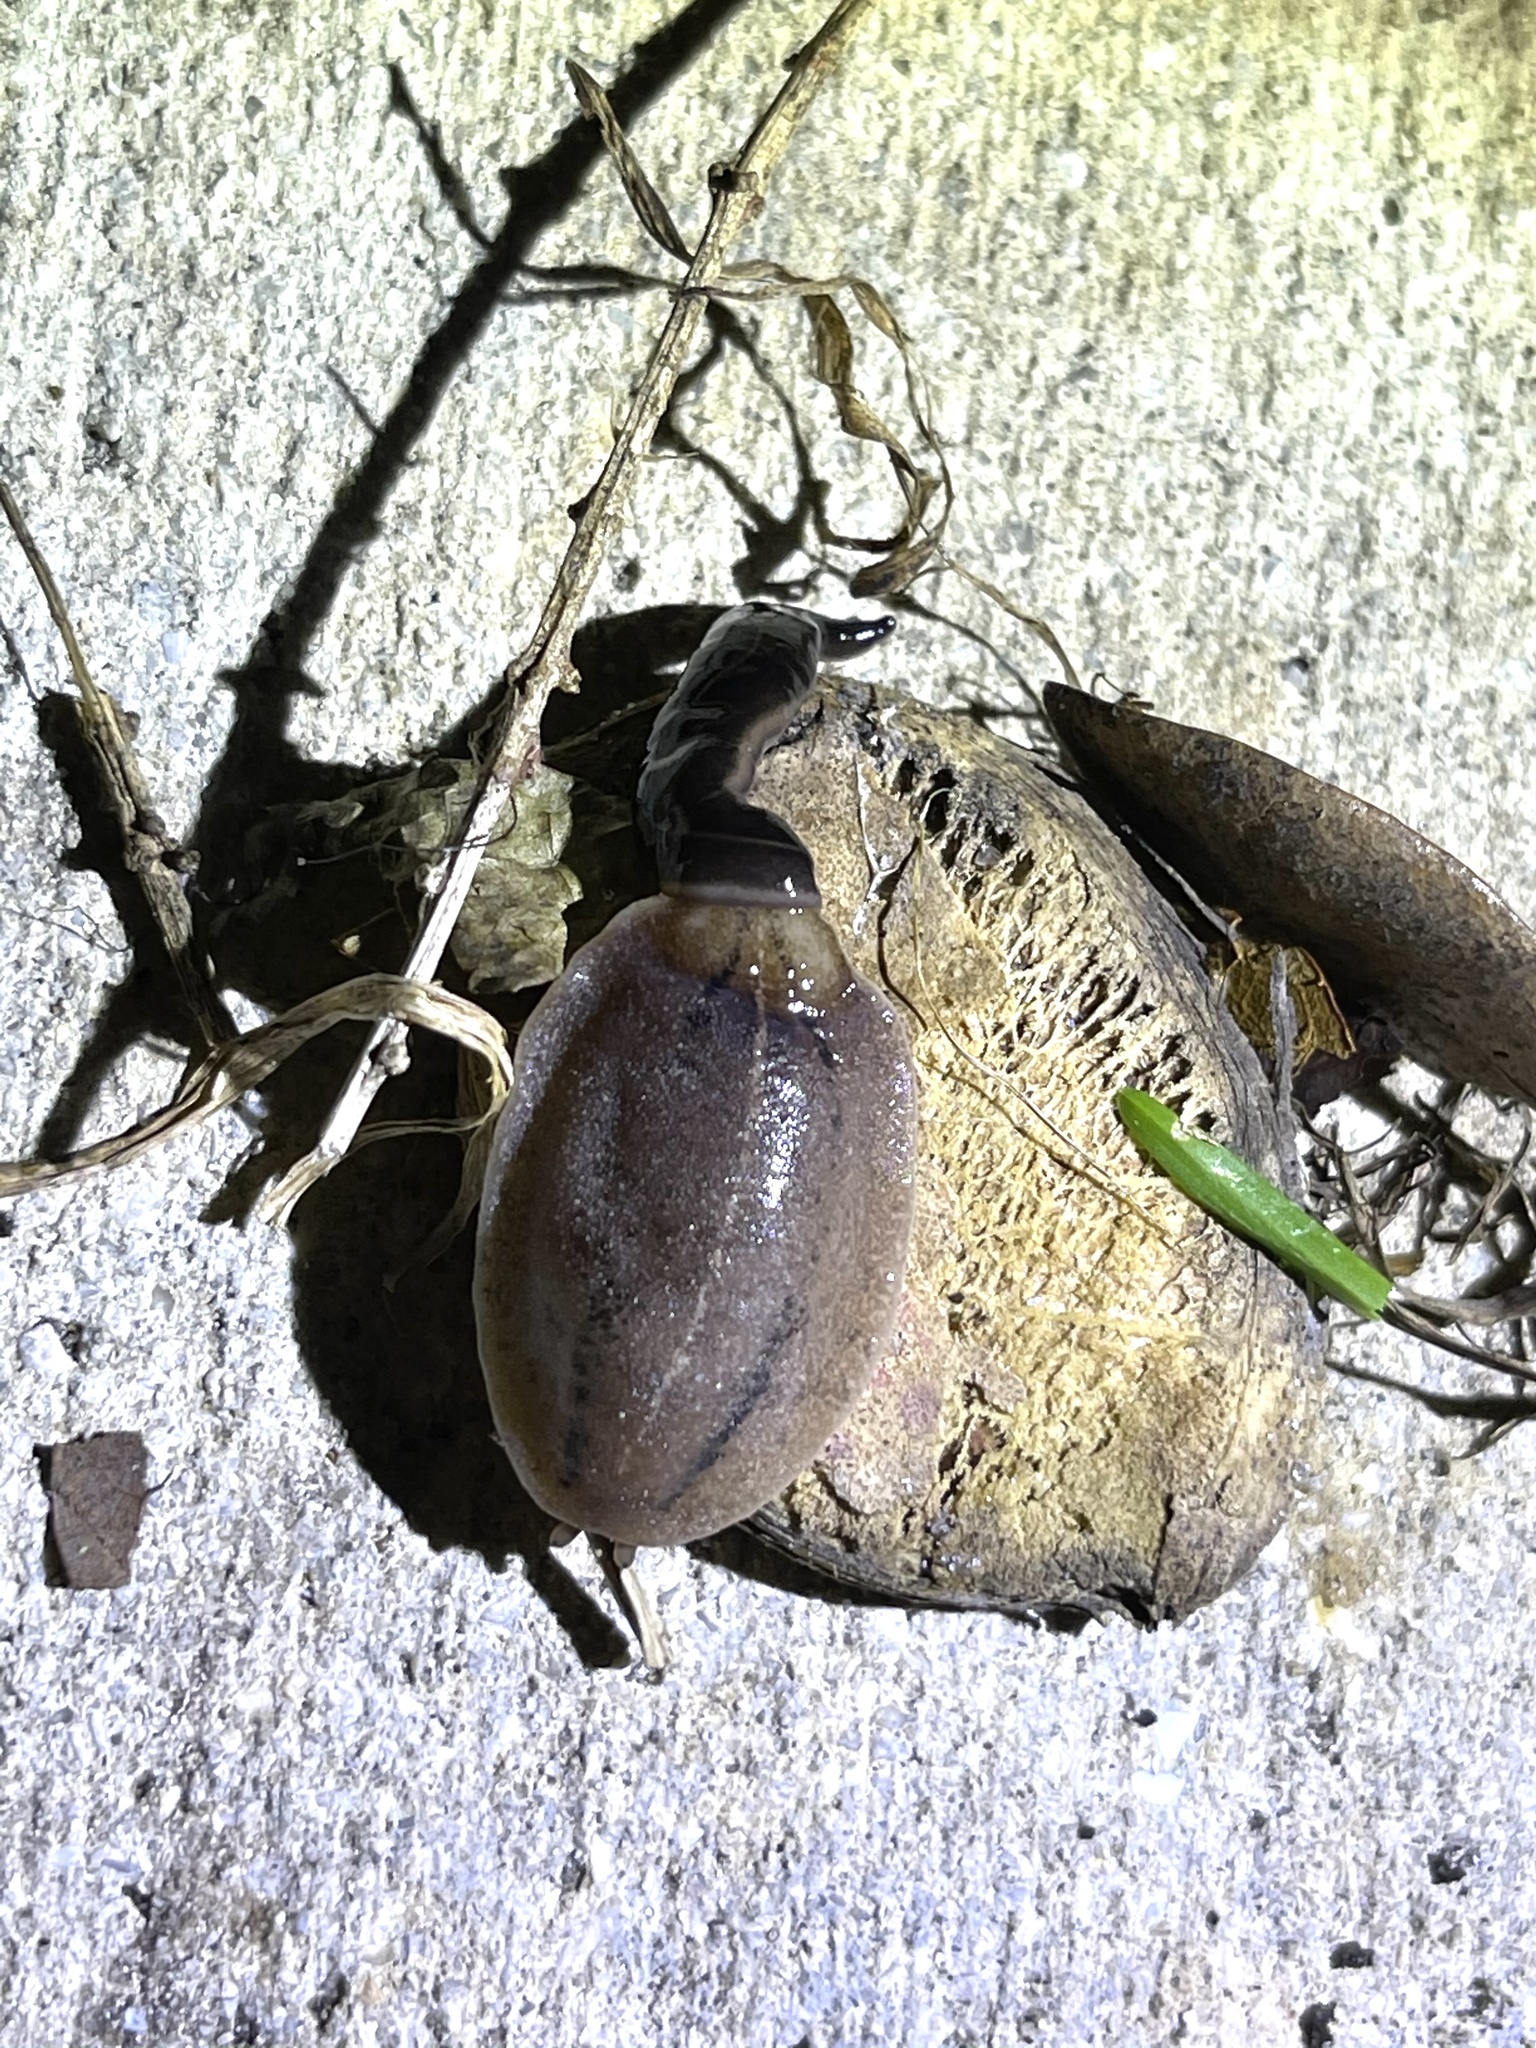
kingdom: Animalia
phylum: Platyhelminthes
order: Tricladida
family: Geoplanidae
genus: Platydemus
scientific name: Platydemus manokwari
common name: New guinea flatworm
